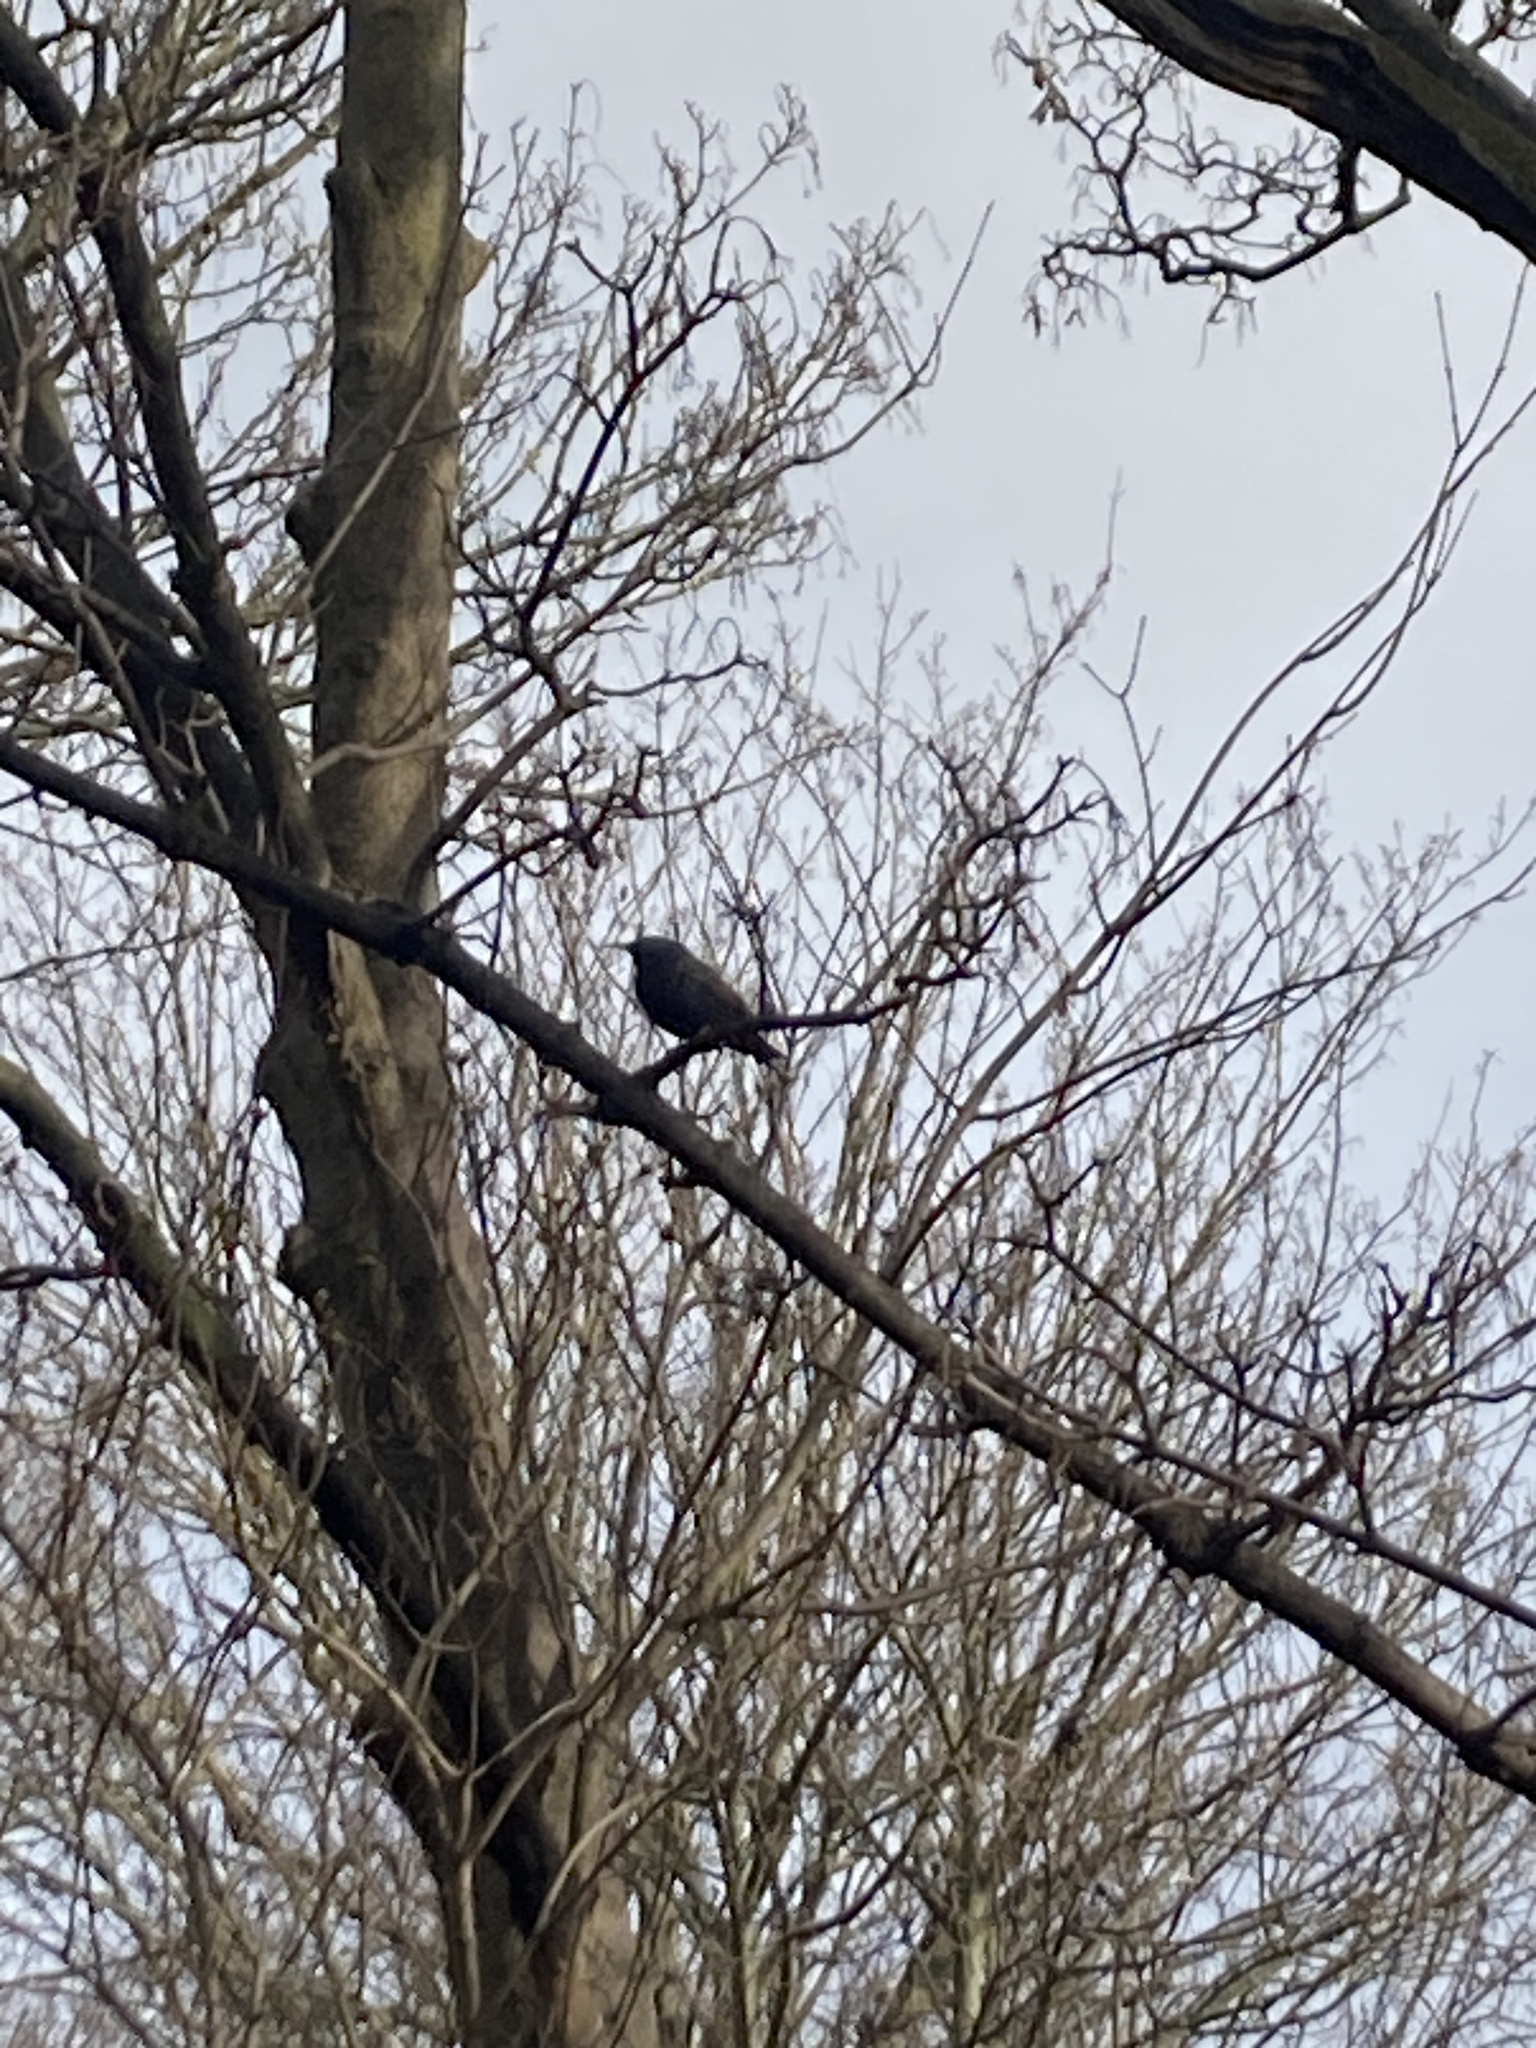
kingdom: Animalia
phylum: Chordata
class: Aves
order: Passeriformes
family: Sturnidae
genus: Sturnus
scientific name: Sturnus vulgaris
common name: Common starling
